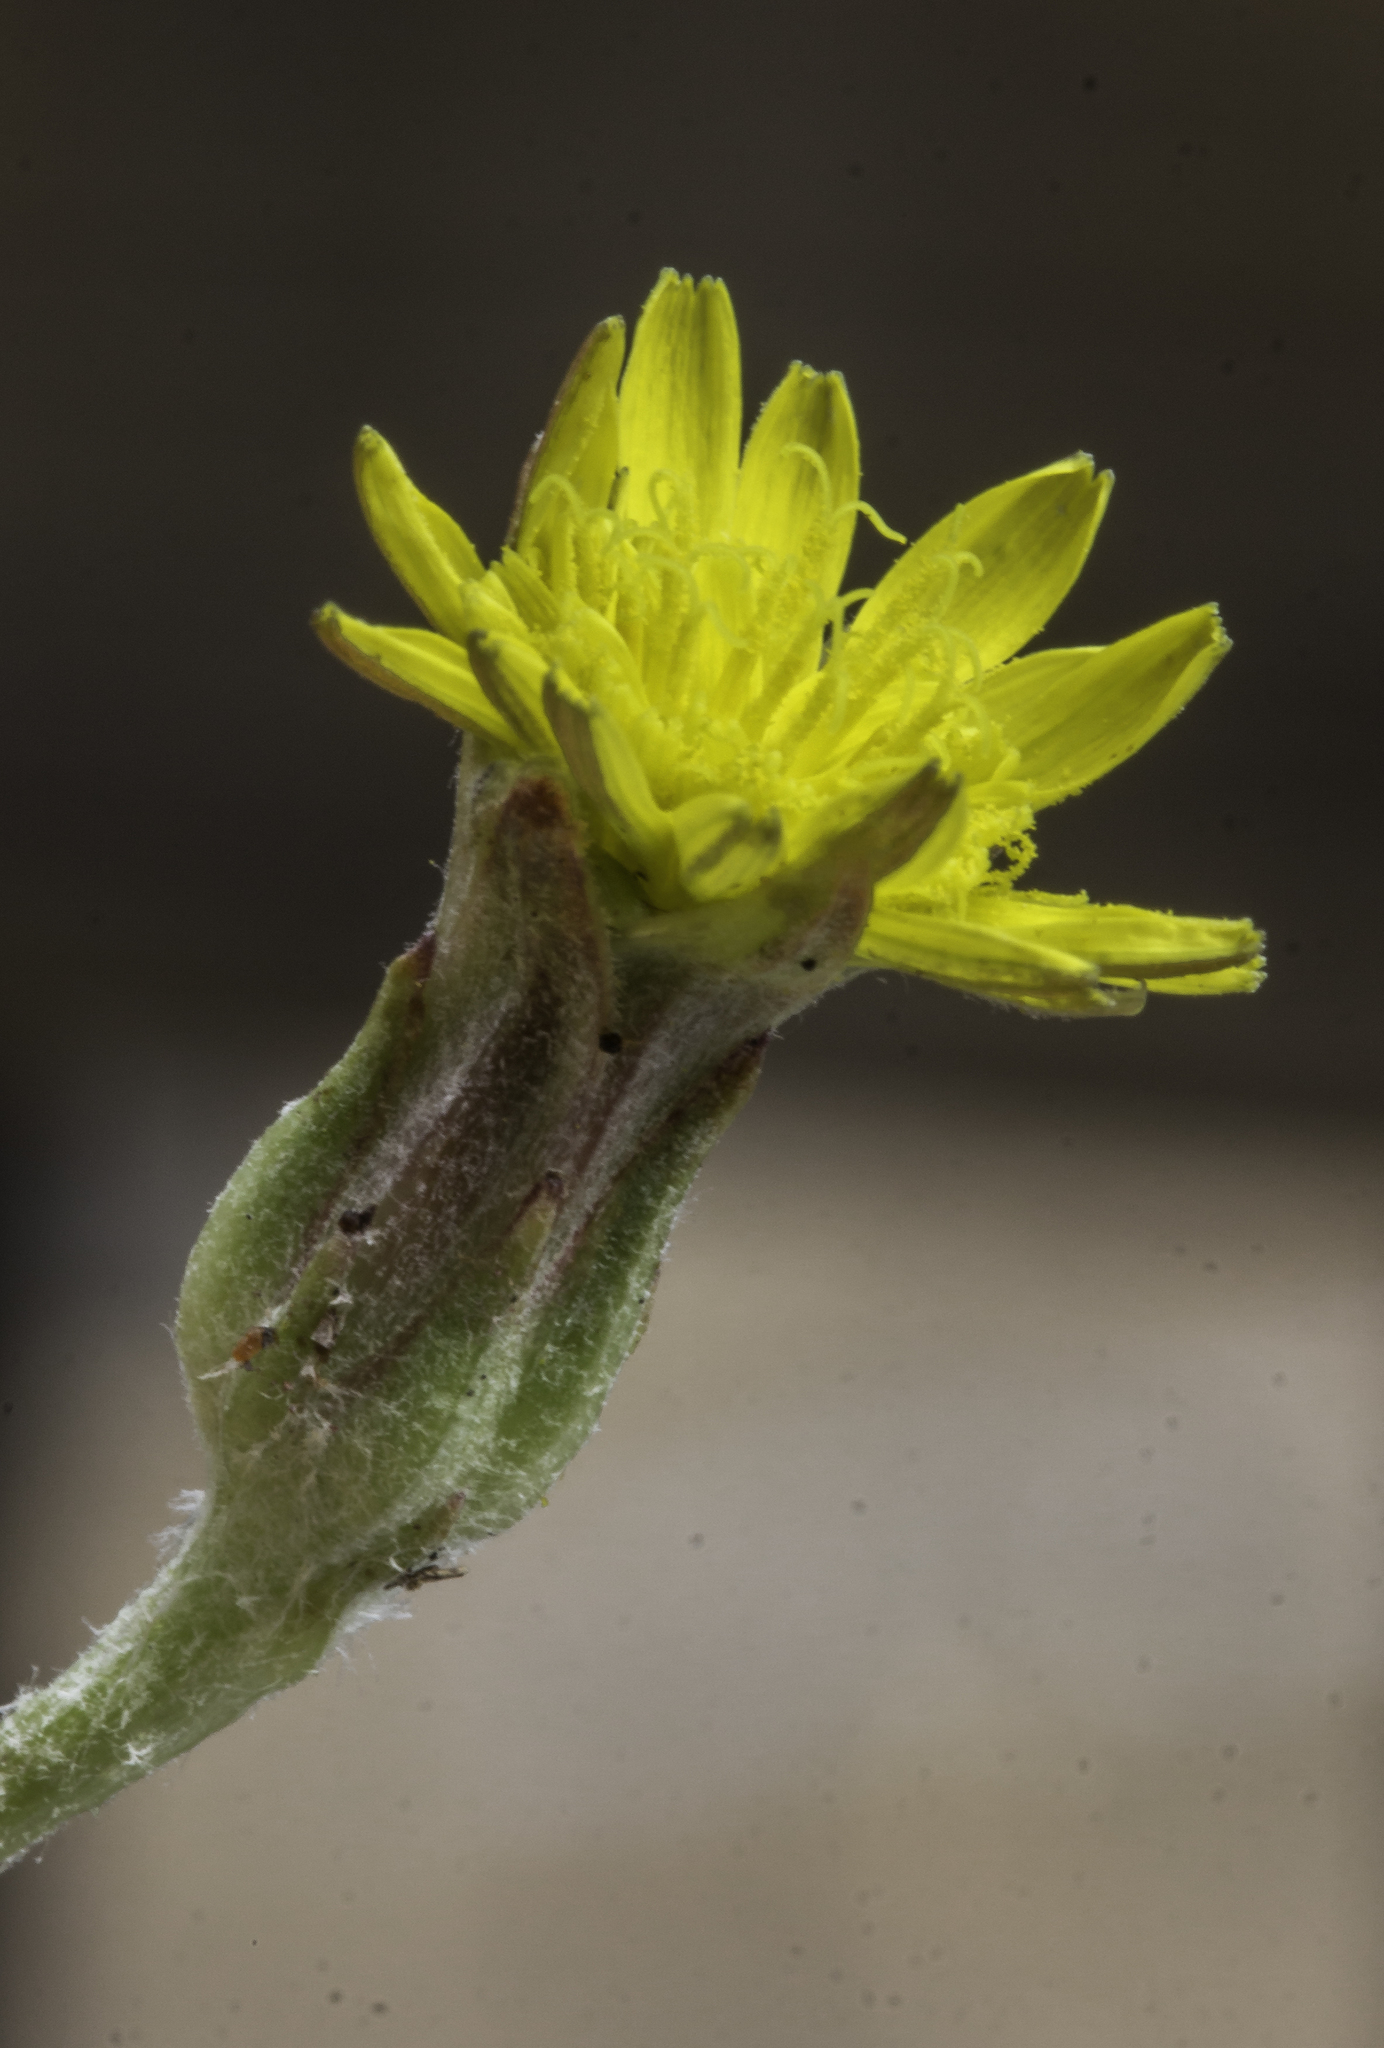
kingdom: Plantae
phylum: Tracheophyta
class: Magnoliopsida
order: Asterales
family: Asteraceae
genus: Scorzonera
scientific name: Scorzonera laciniata
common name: Cutleaf vipergrass
